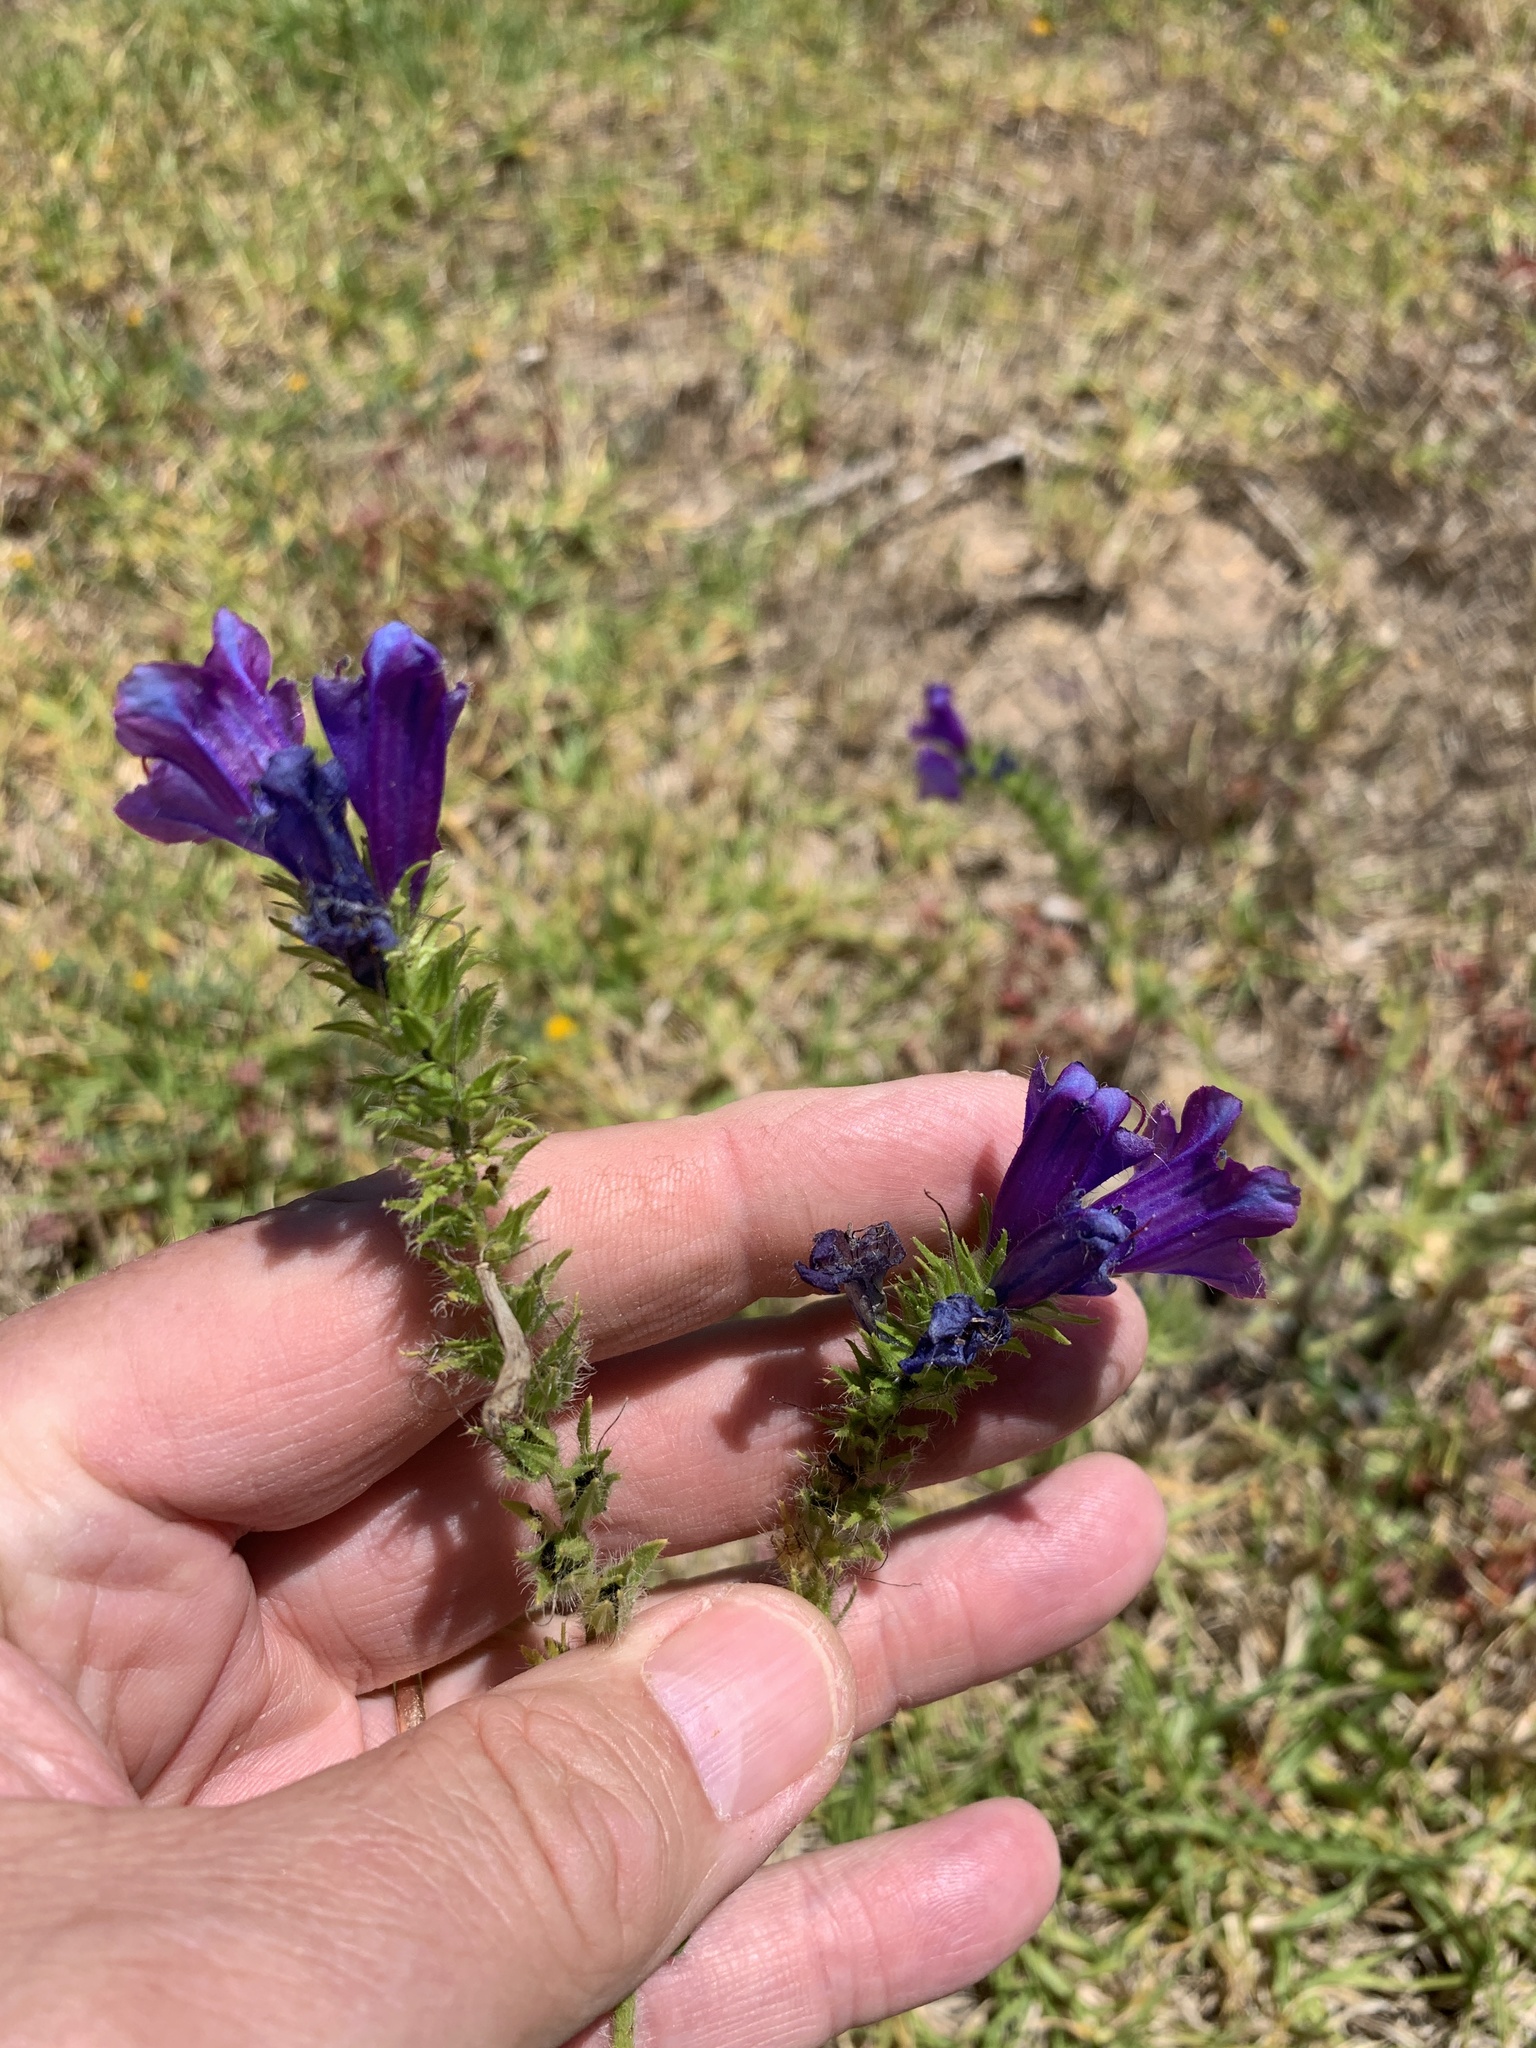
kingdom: Plantae
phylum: Tracheophyta
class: Magnoliopsida
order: Boraginales
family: Boraginaceae
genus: Echium
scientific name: Echium plantagineum
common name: Purple viper's-bugloss
